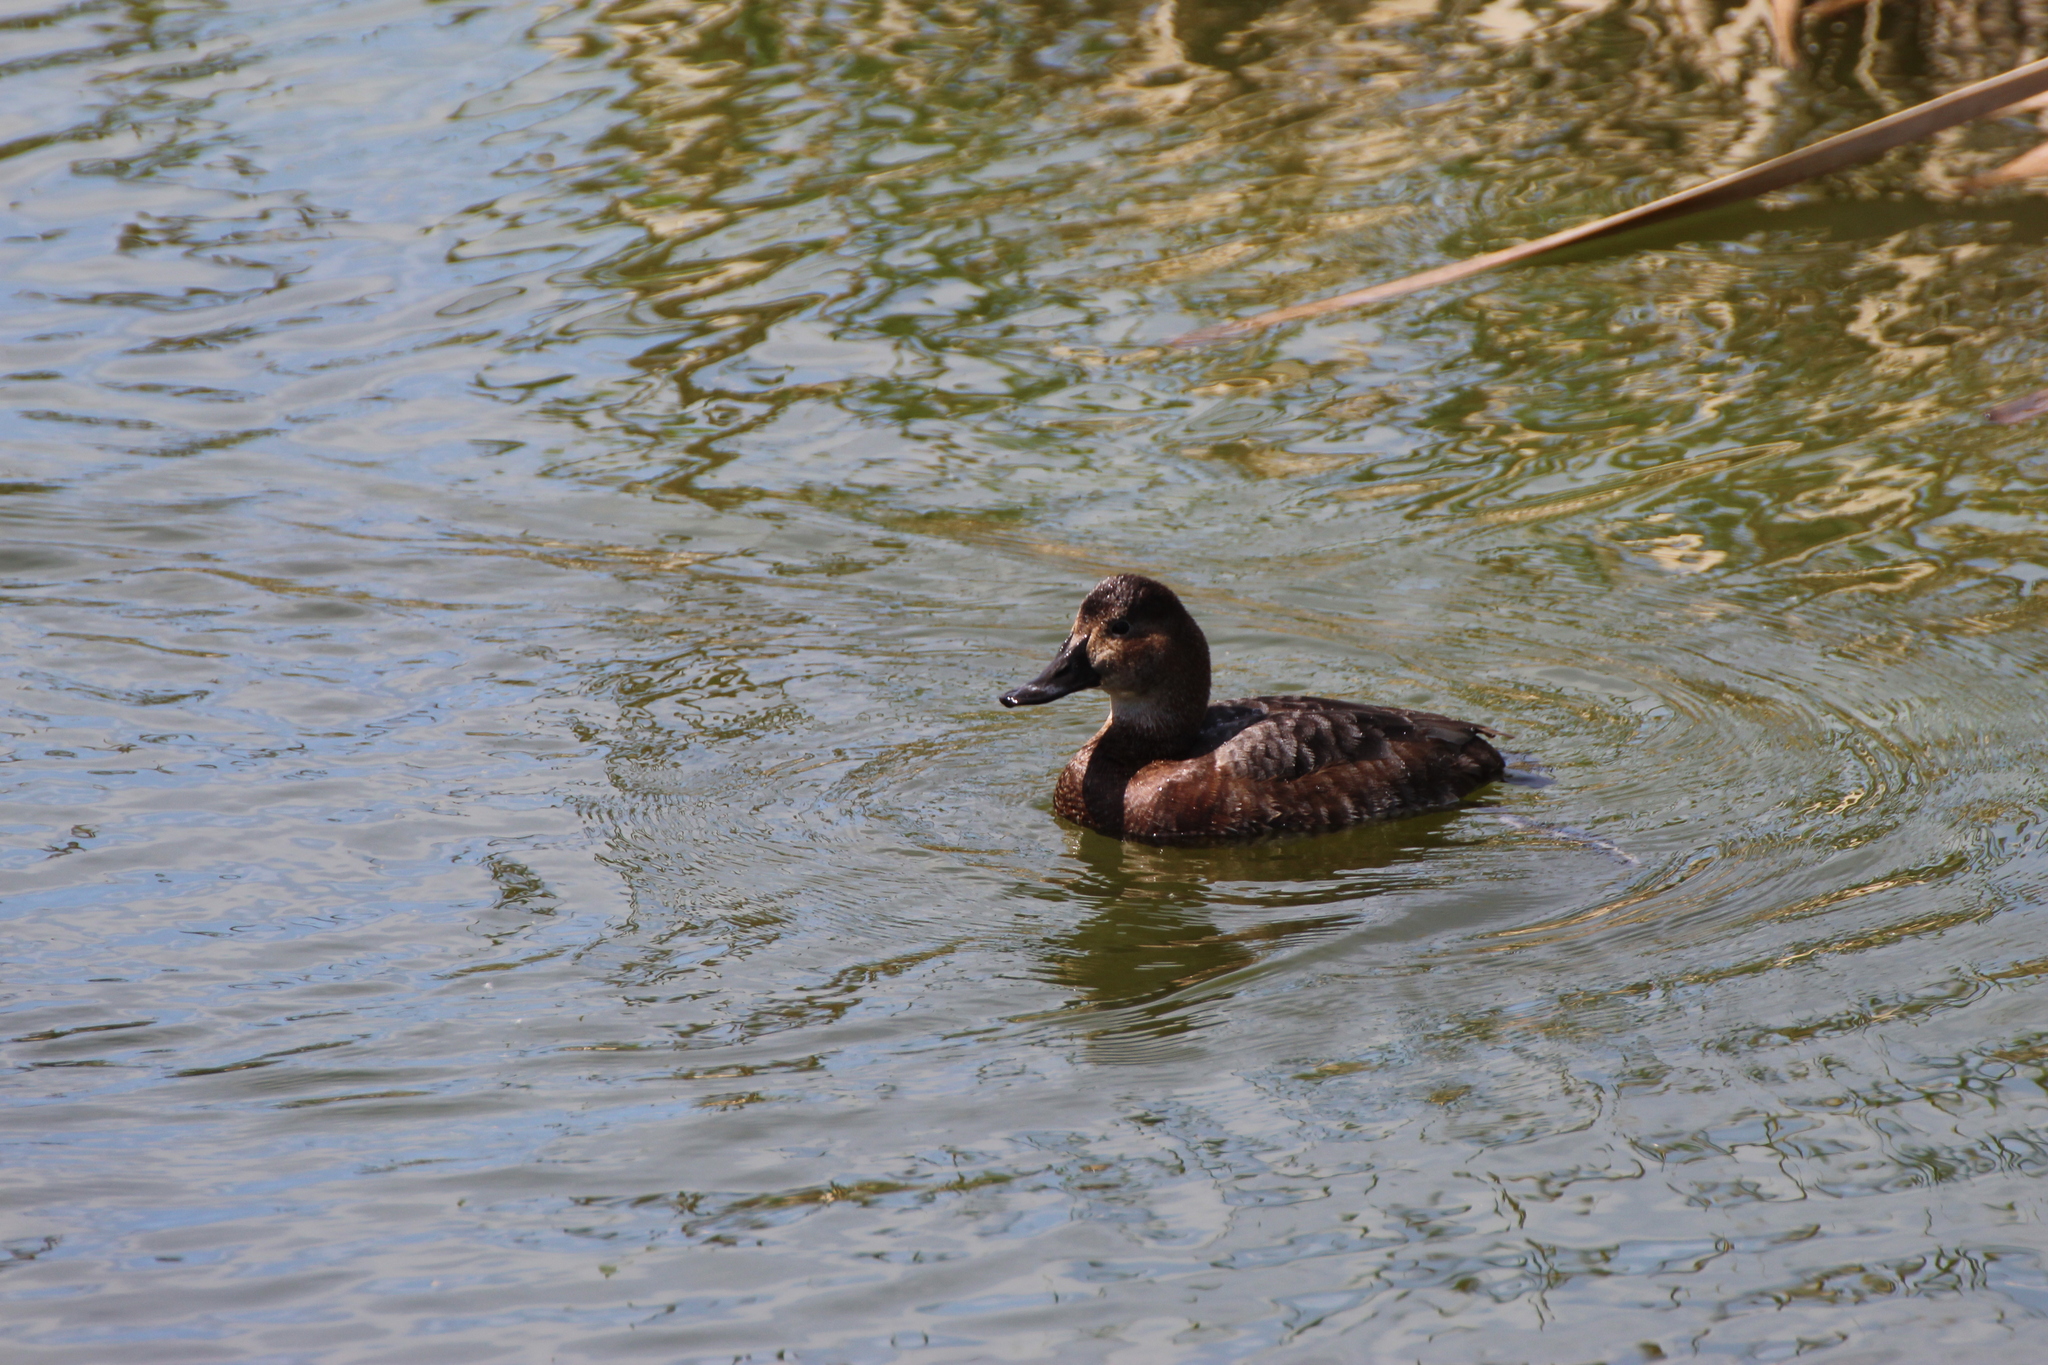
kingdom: Animalia
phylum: Chordata
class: Aves
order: Anseriformes
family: Anatidae
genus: Aythya
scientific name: Aythya ferina
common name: Common pochard
